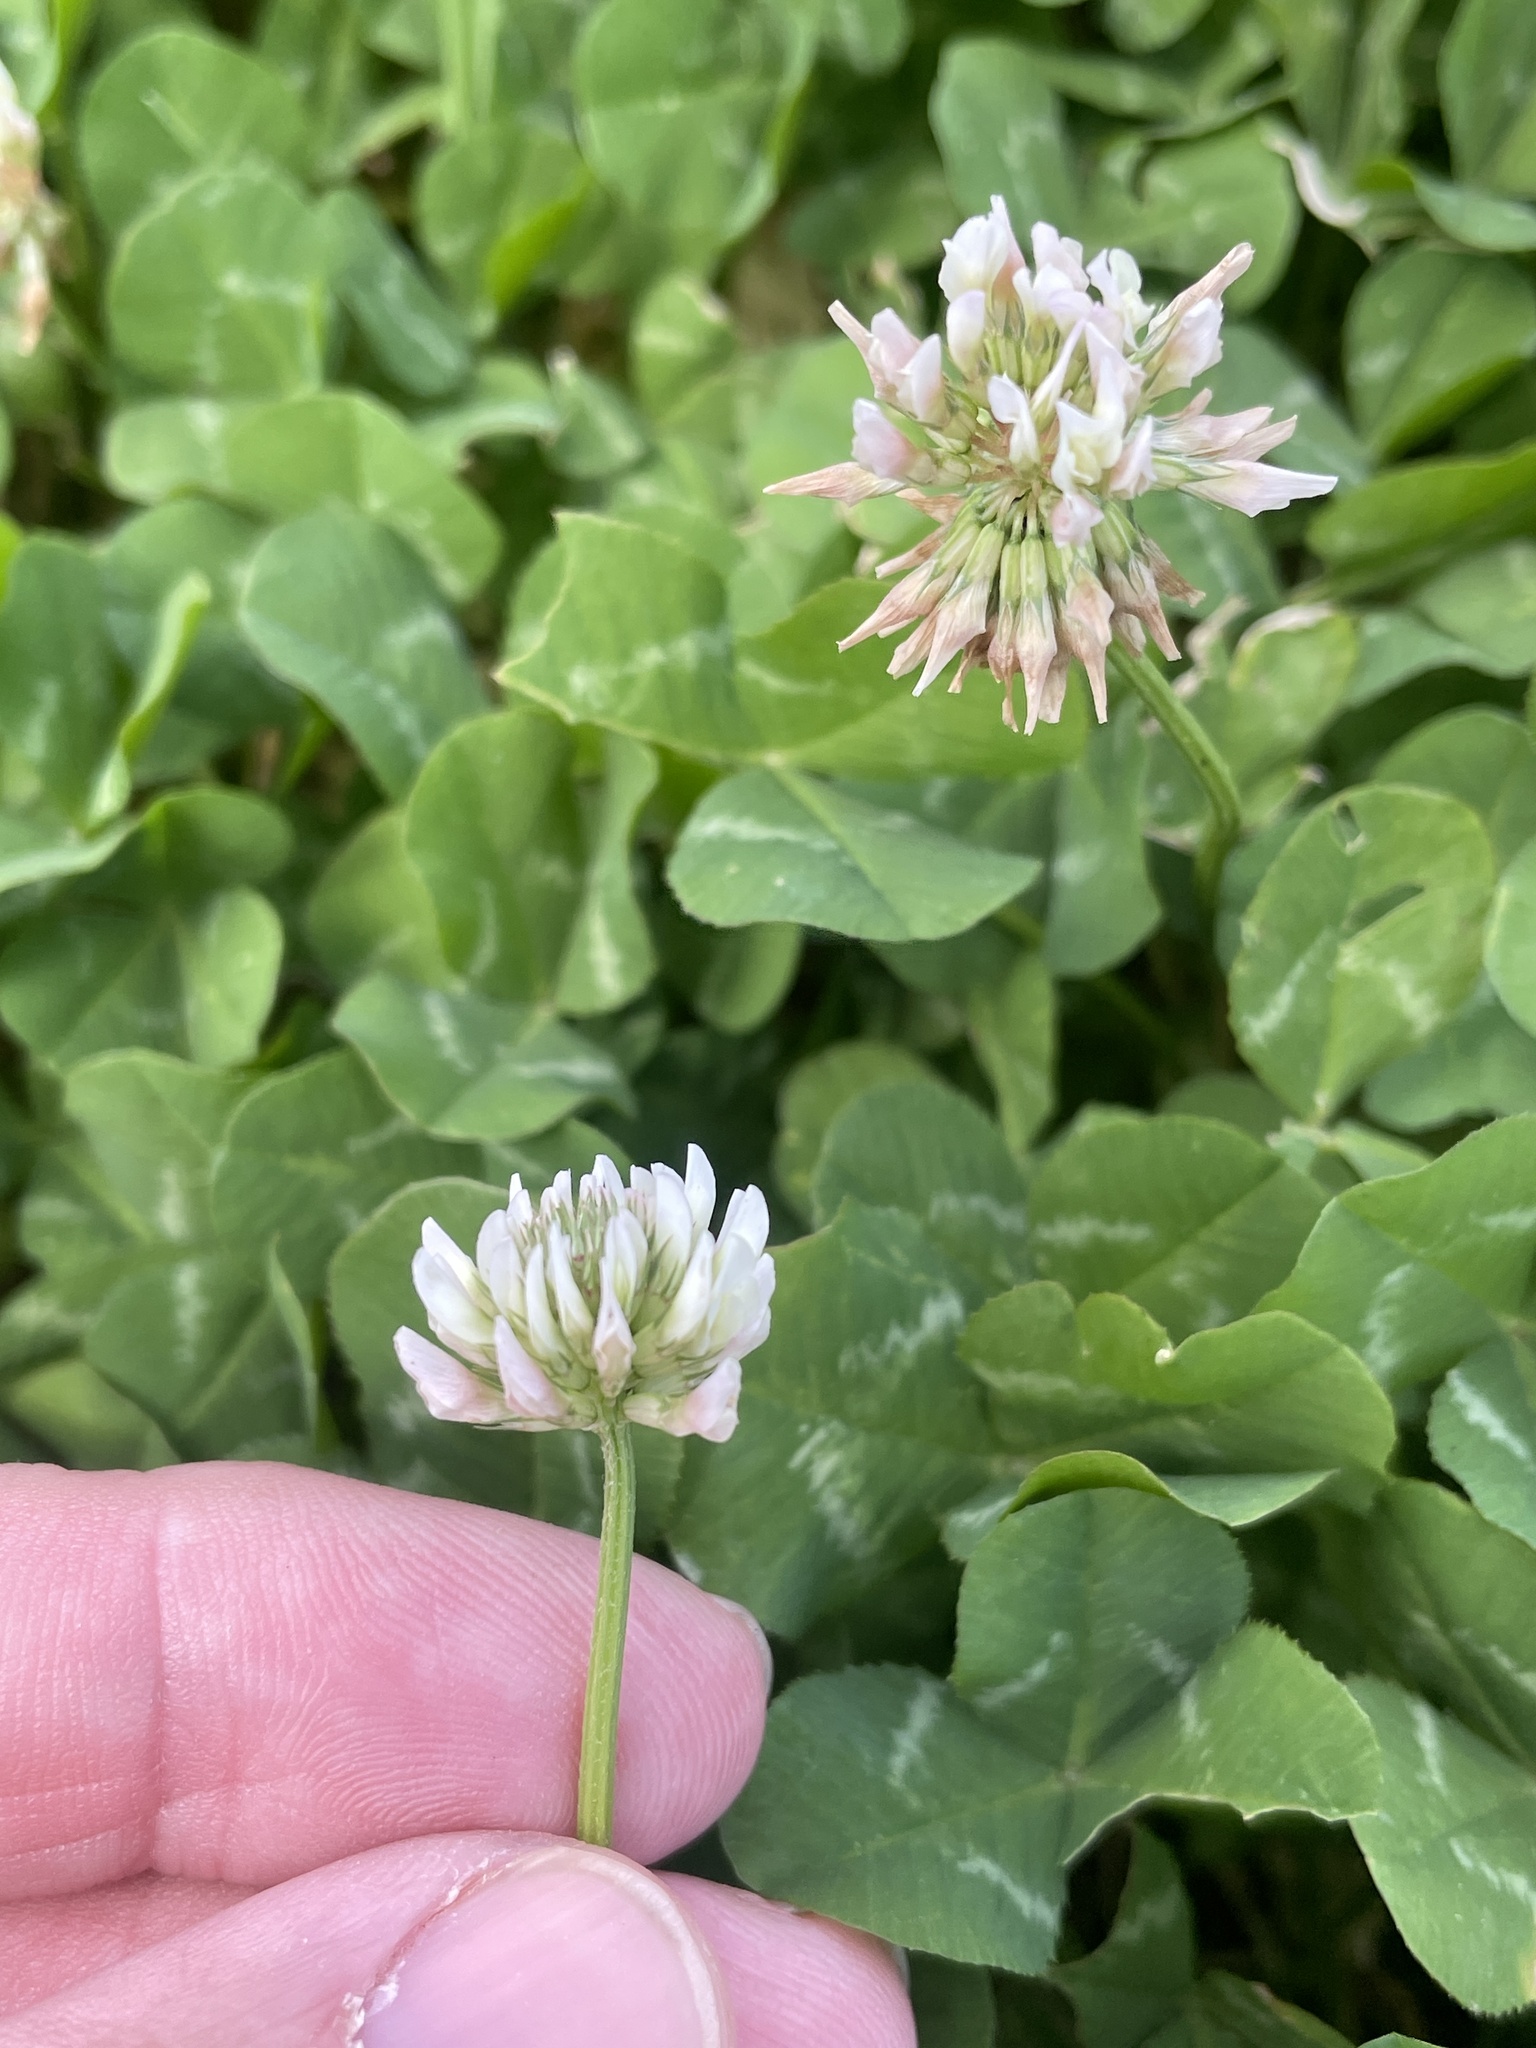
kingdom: Plantae
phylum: Tracheophyta
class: Magnoliopsida
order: Fabales
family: Fabaceae
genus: Trifolium
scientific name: Trifolium repens
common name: White clover
